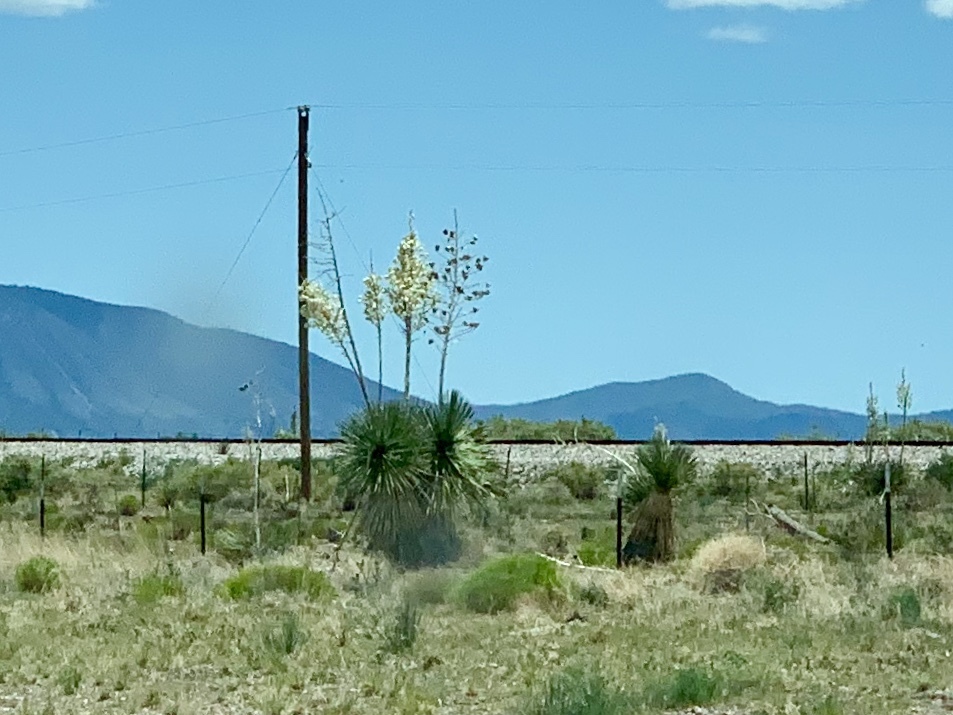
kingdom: Plantae
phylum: Tracheophyta
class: Liliopsida
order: Asparagales
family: Asparagaceae
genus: Yucca
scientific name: Yucca elata
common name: Palmella
